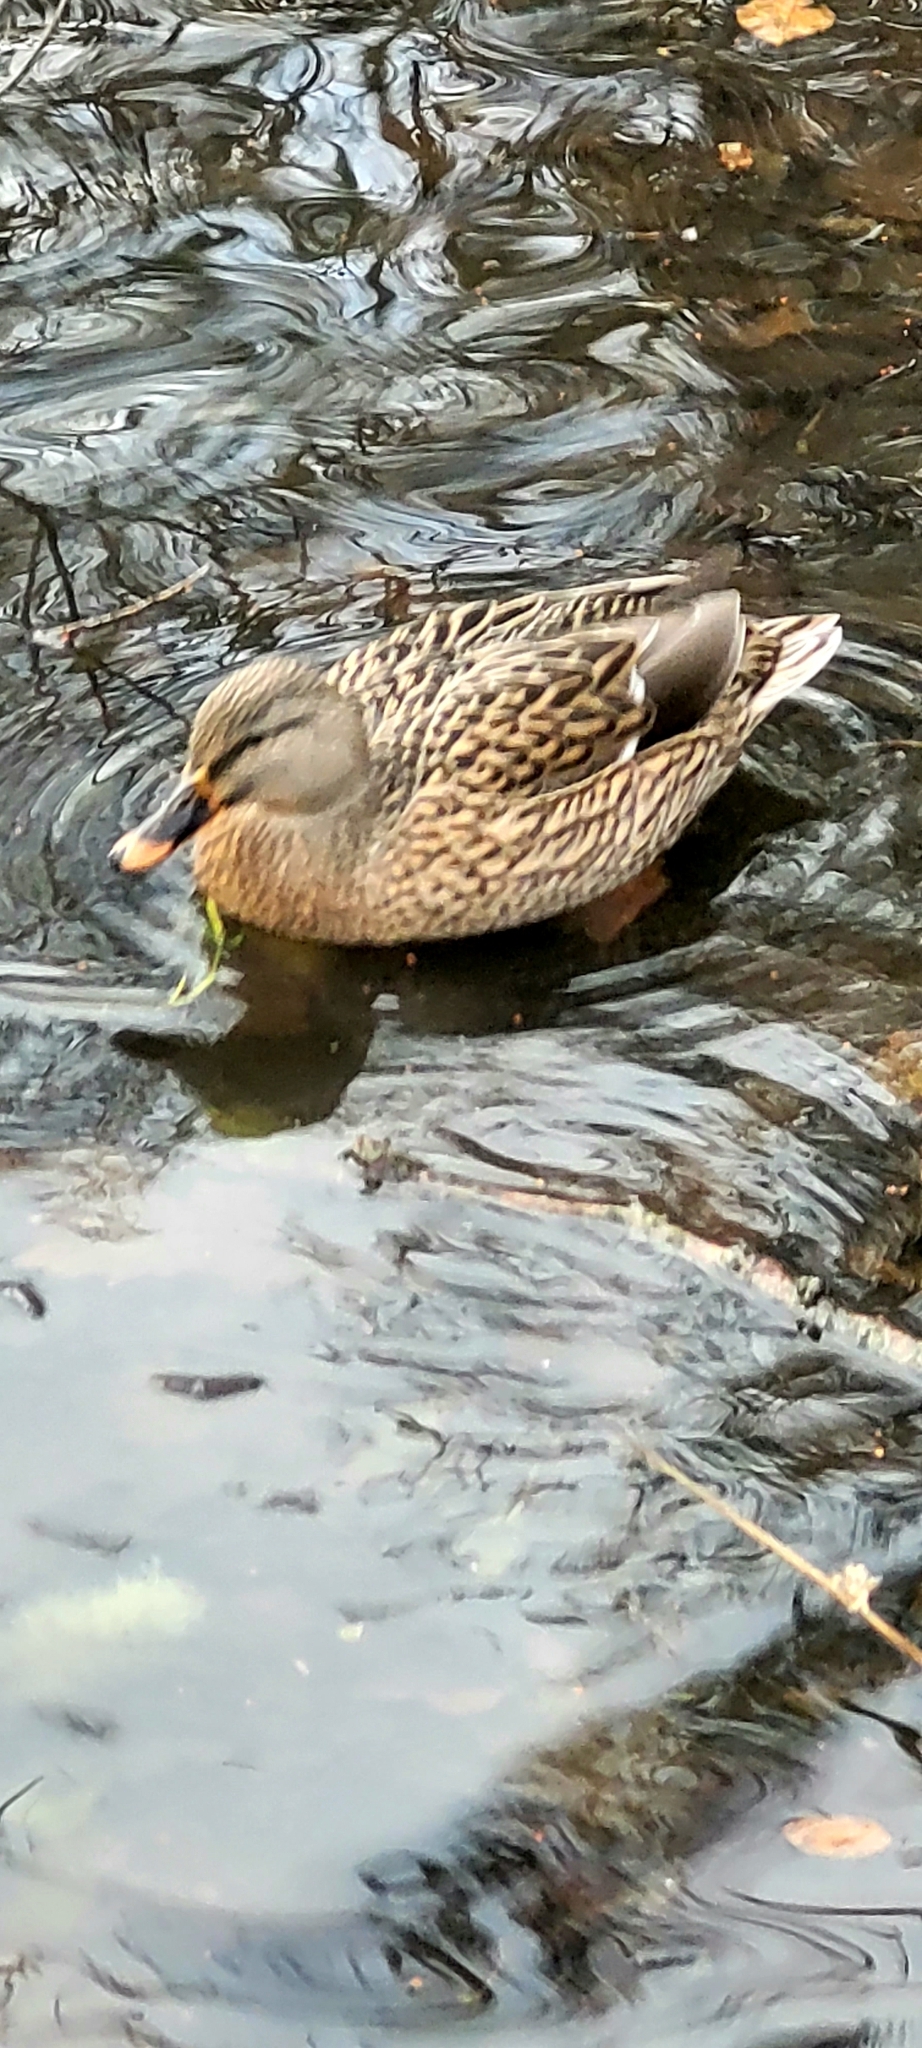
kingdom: Animalia
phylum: Chordata
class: Aves
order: Anseriformes
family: Anatidae
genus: Anas
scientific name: Anas platyrhynchos
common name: Mallard
